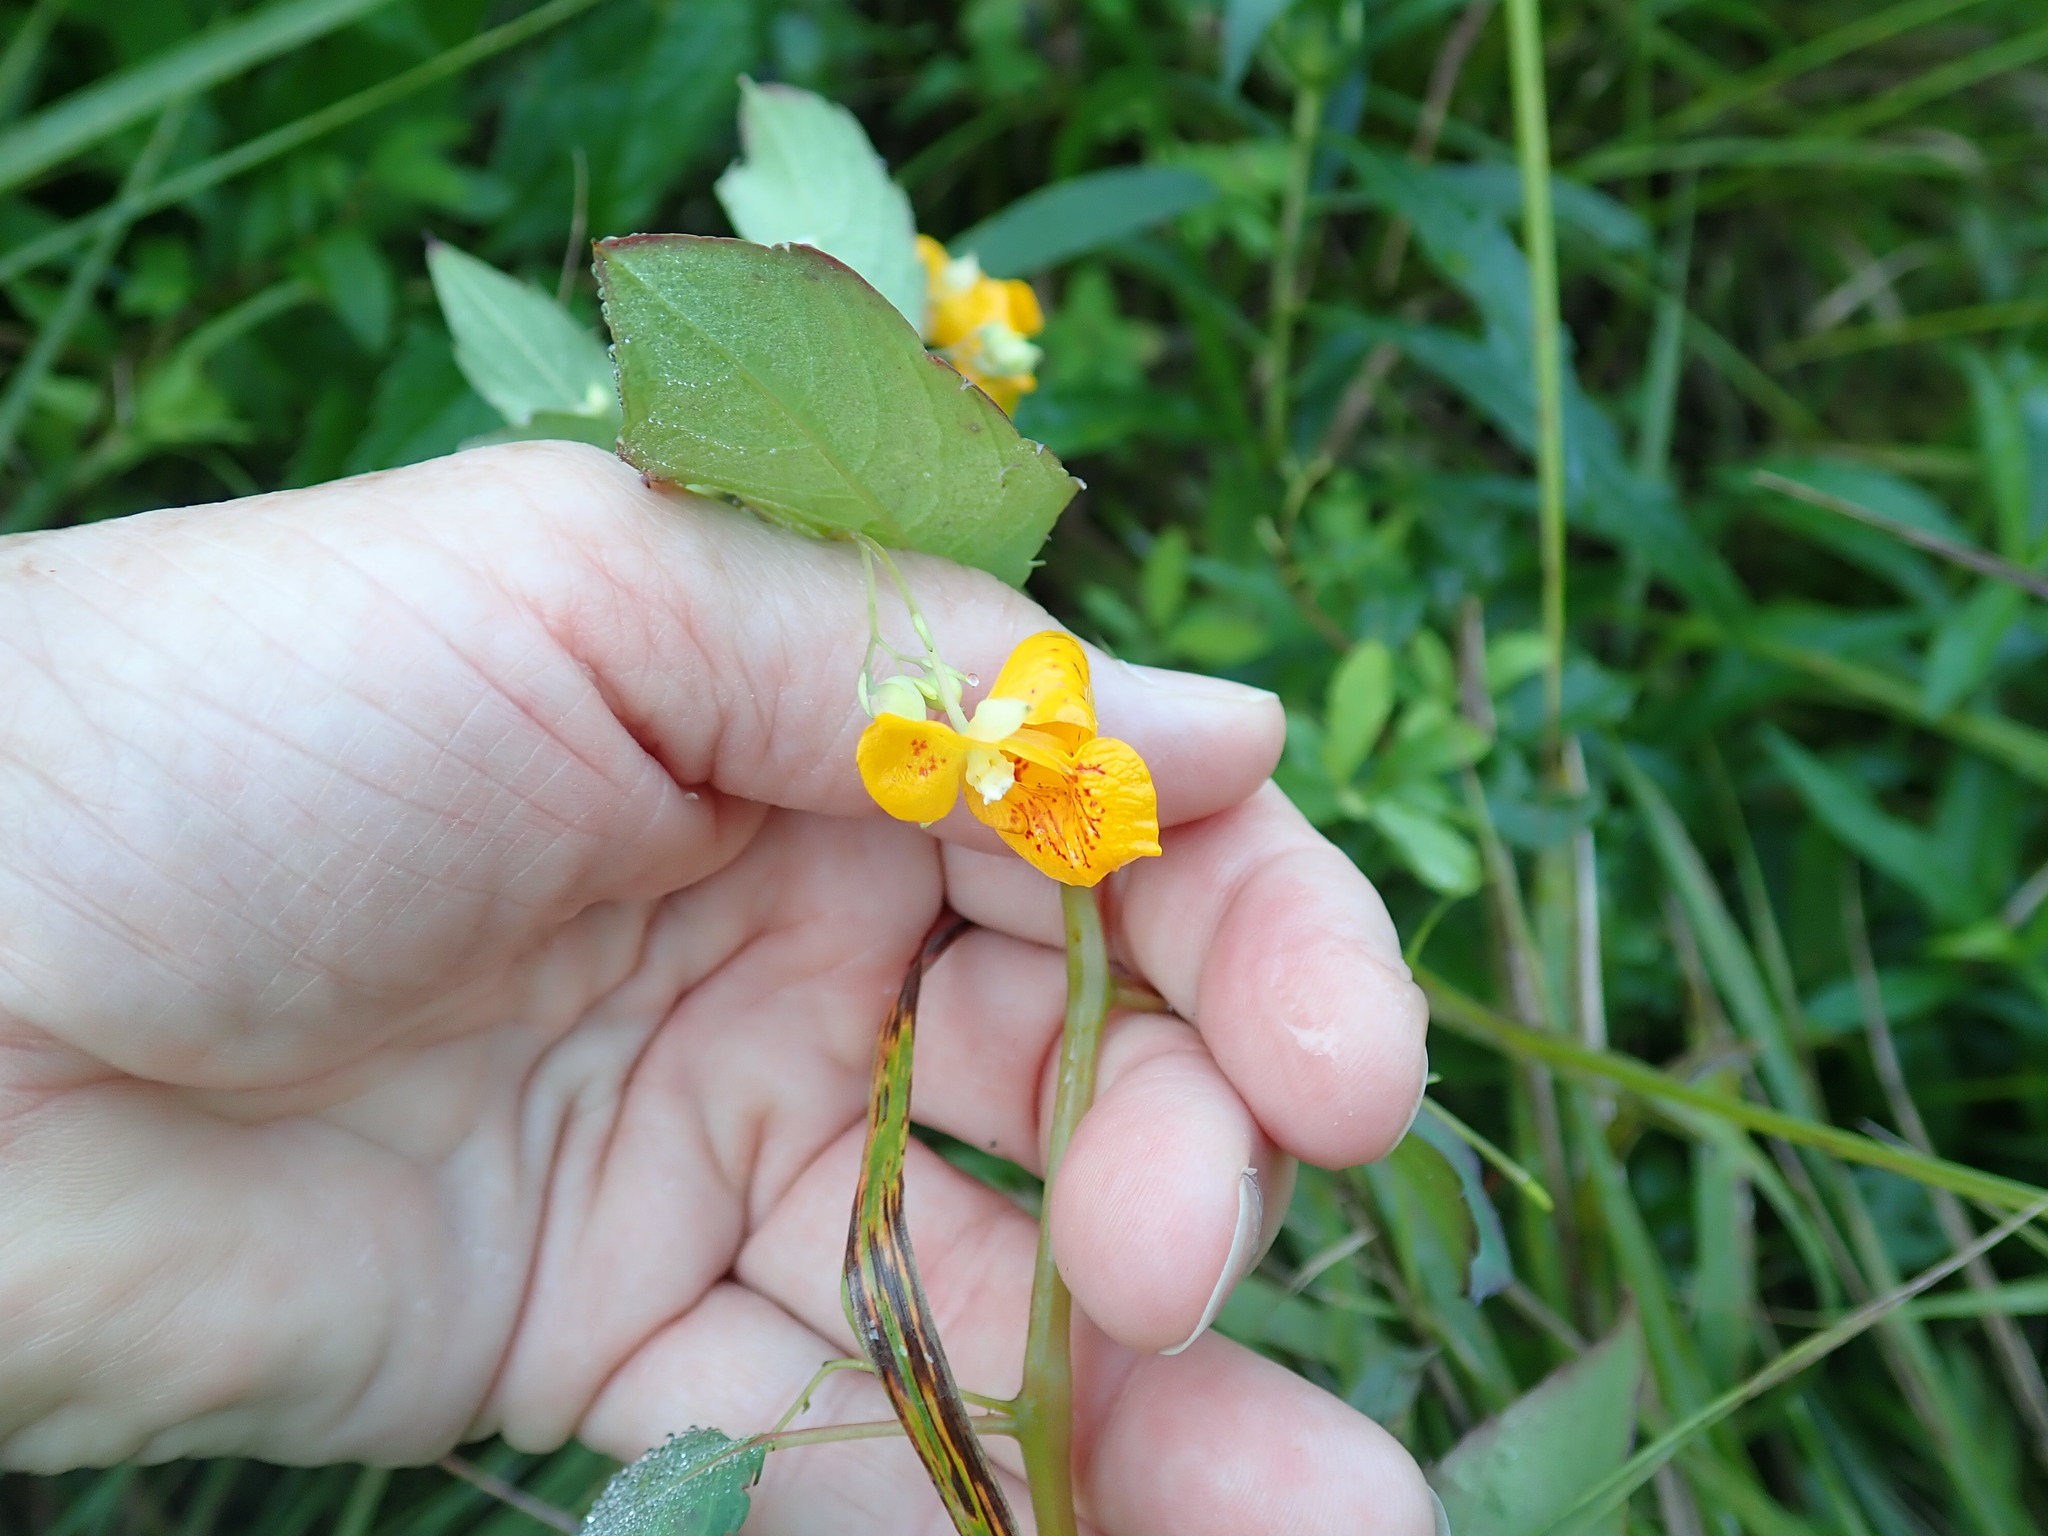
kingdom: Plantae
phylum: Tracheophyta
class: Magnoliopsida
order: Ericales
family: Balsaminaceae
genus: Impatiens
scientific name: Impatiens capensis
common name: Orange balsam
